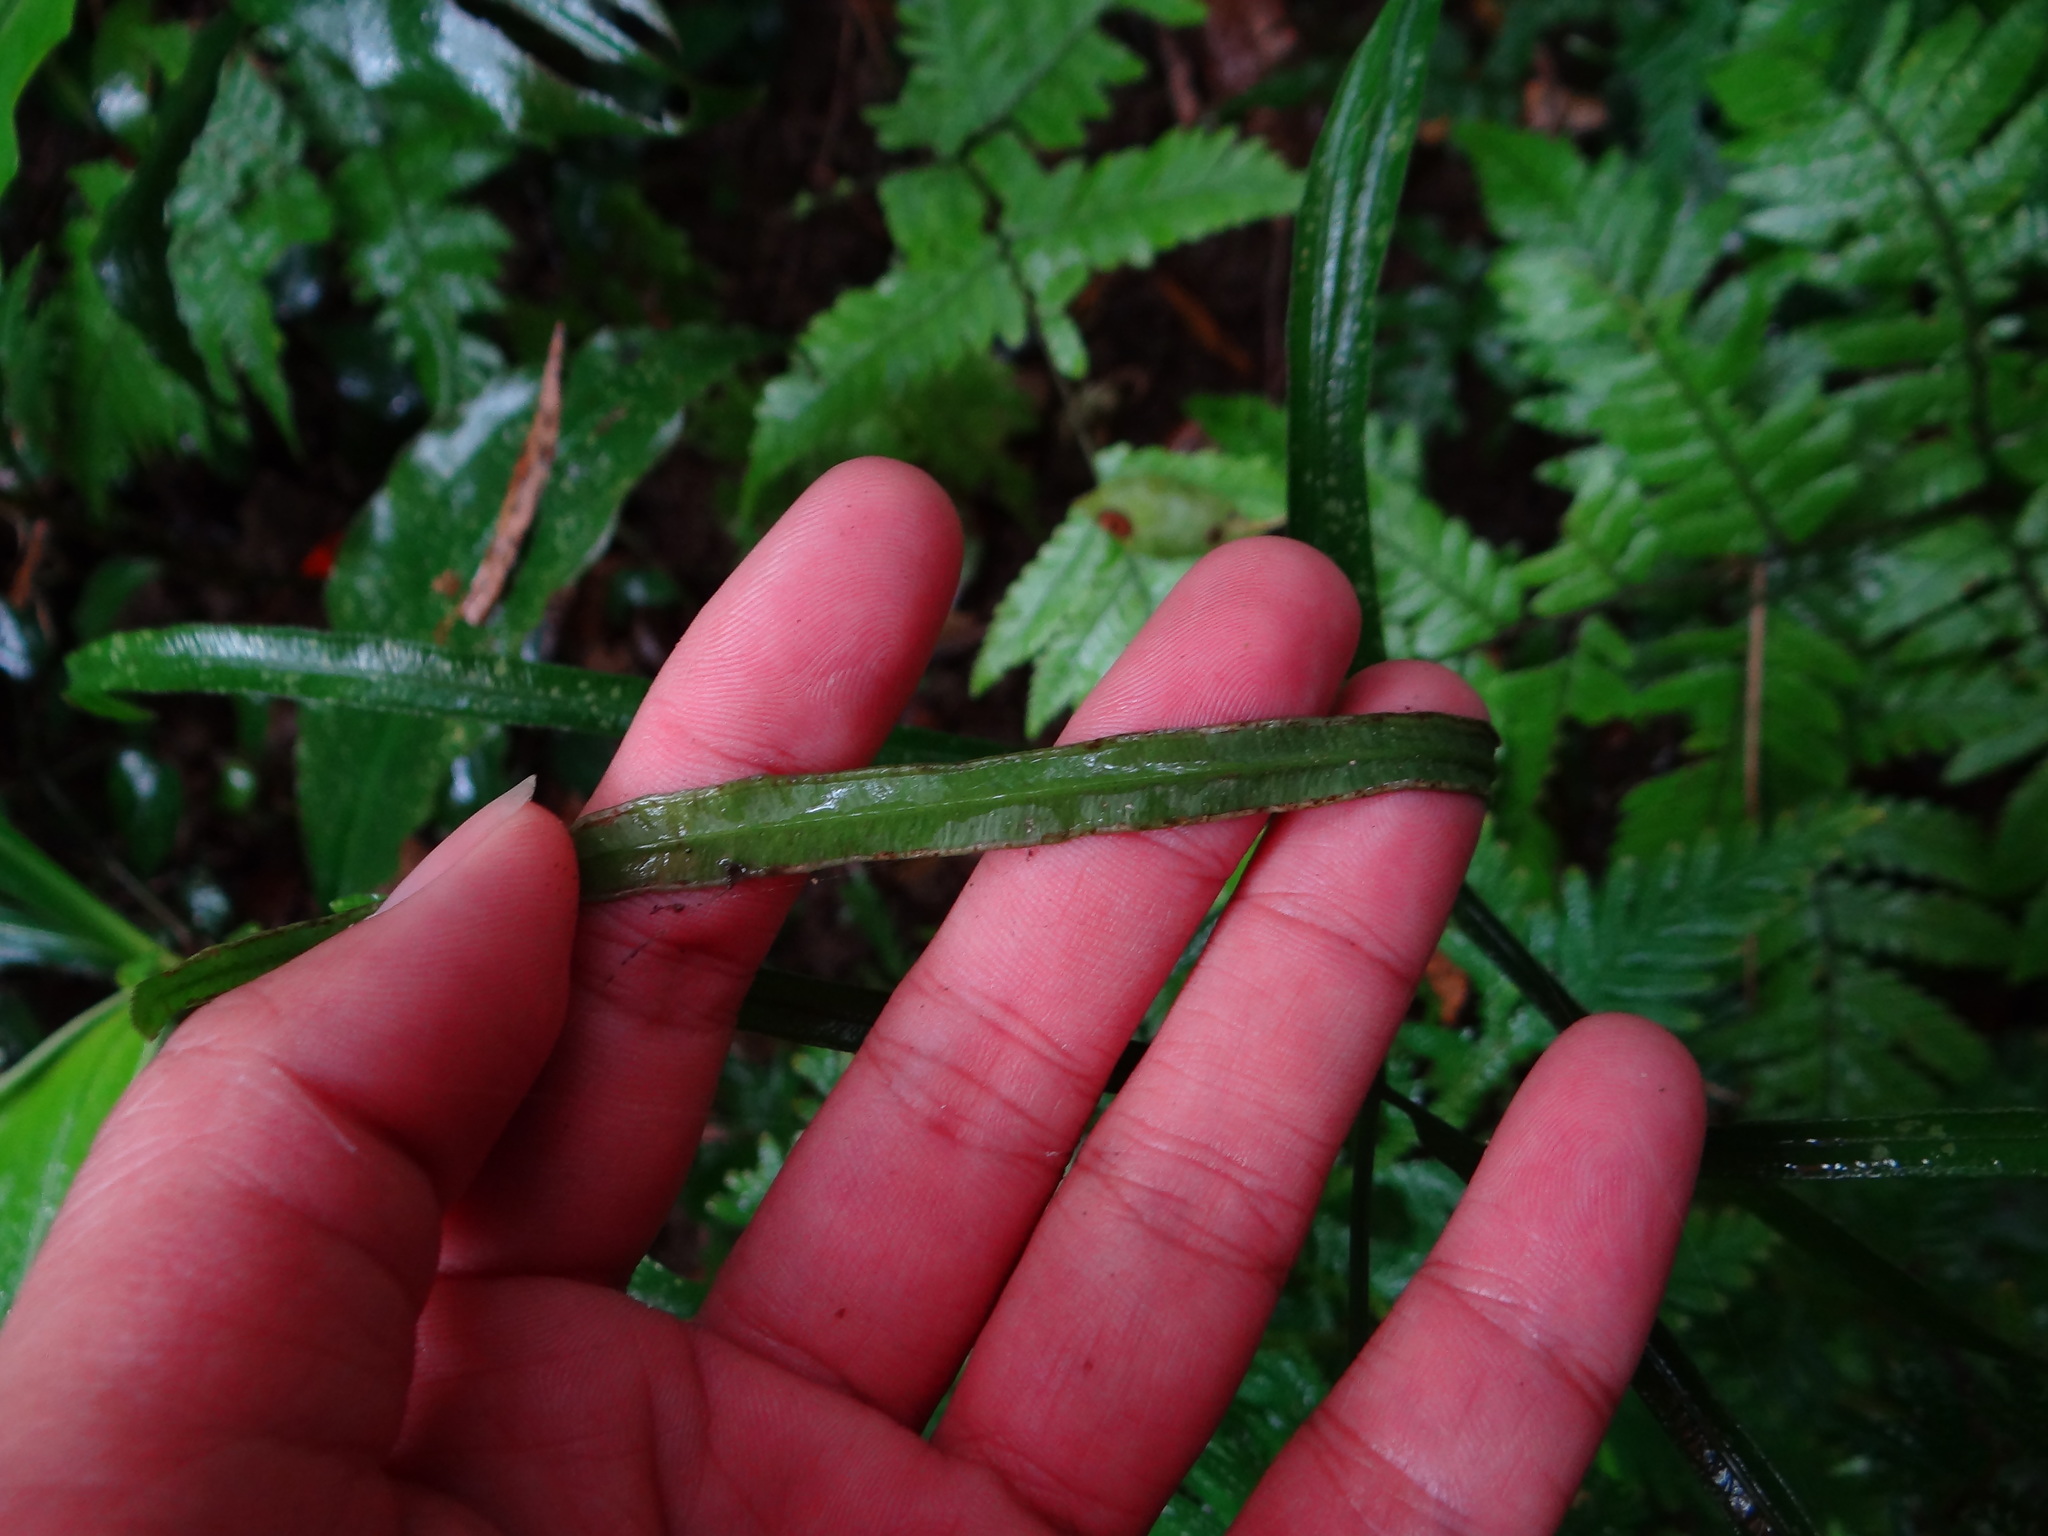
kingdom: Plantae
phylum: Tracheophyta
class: Polypodiopsida
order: Polypodiales
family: Pteridaceae
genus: Pteris
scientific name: Pteris ensiformis
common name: Sword brake
